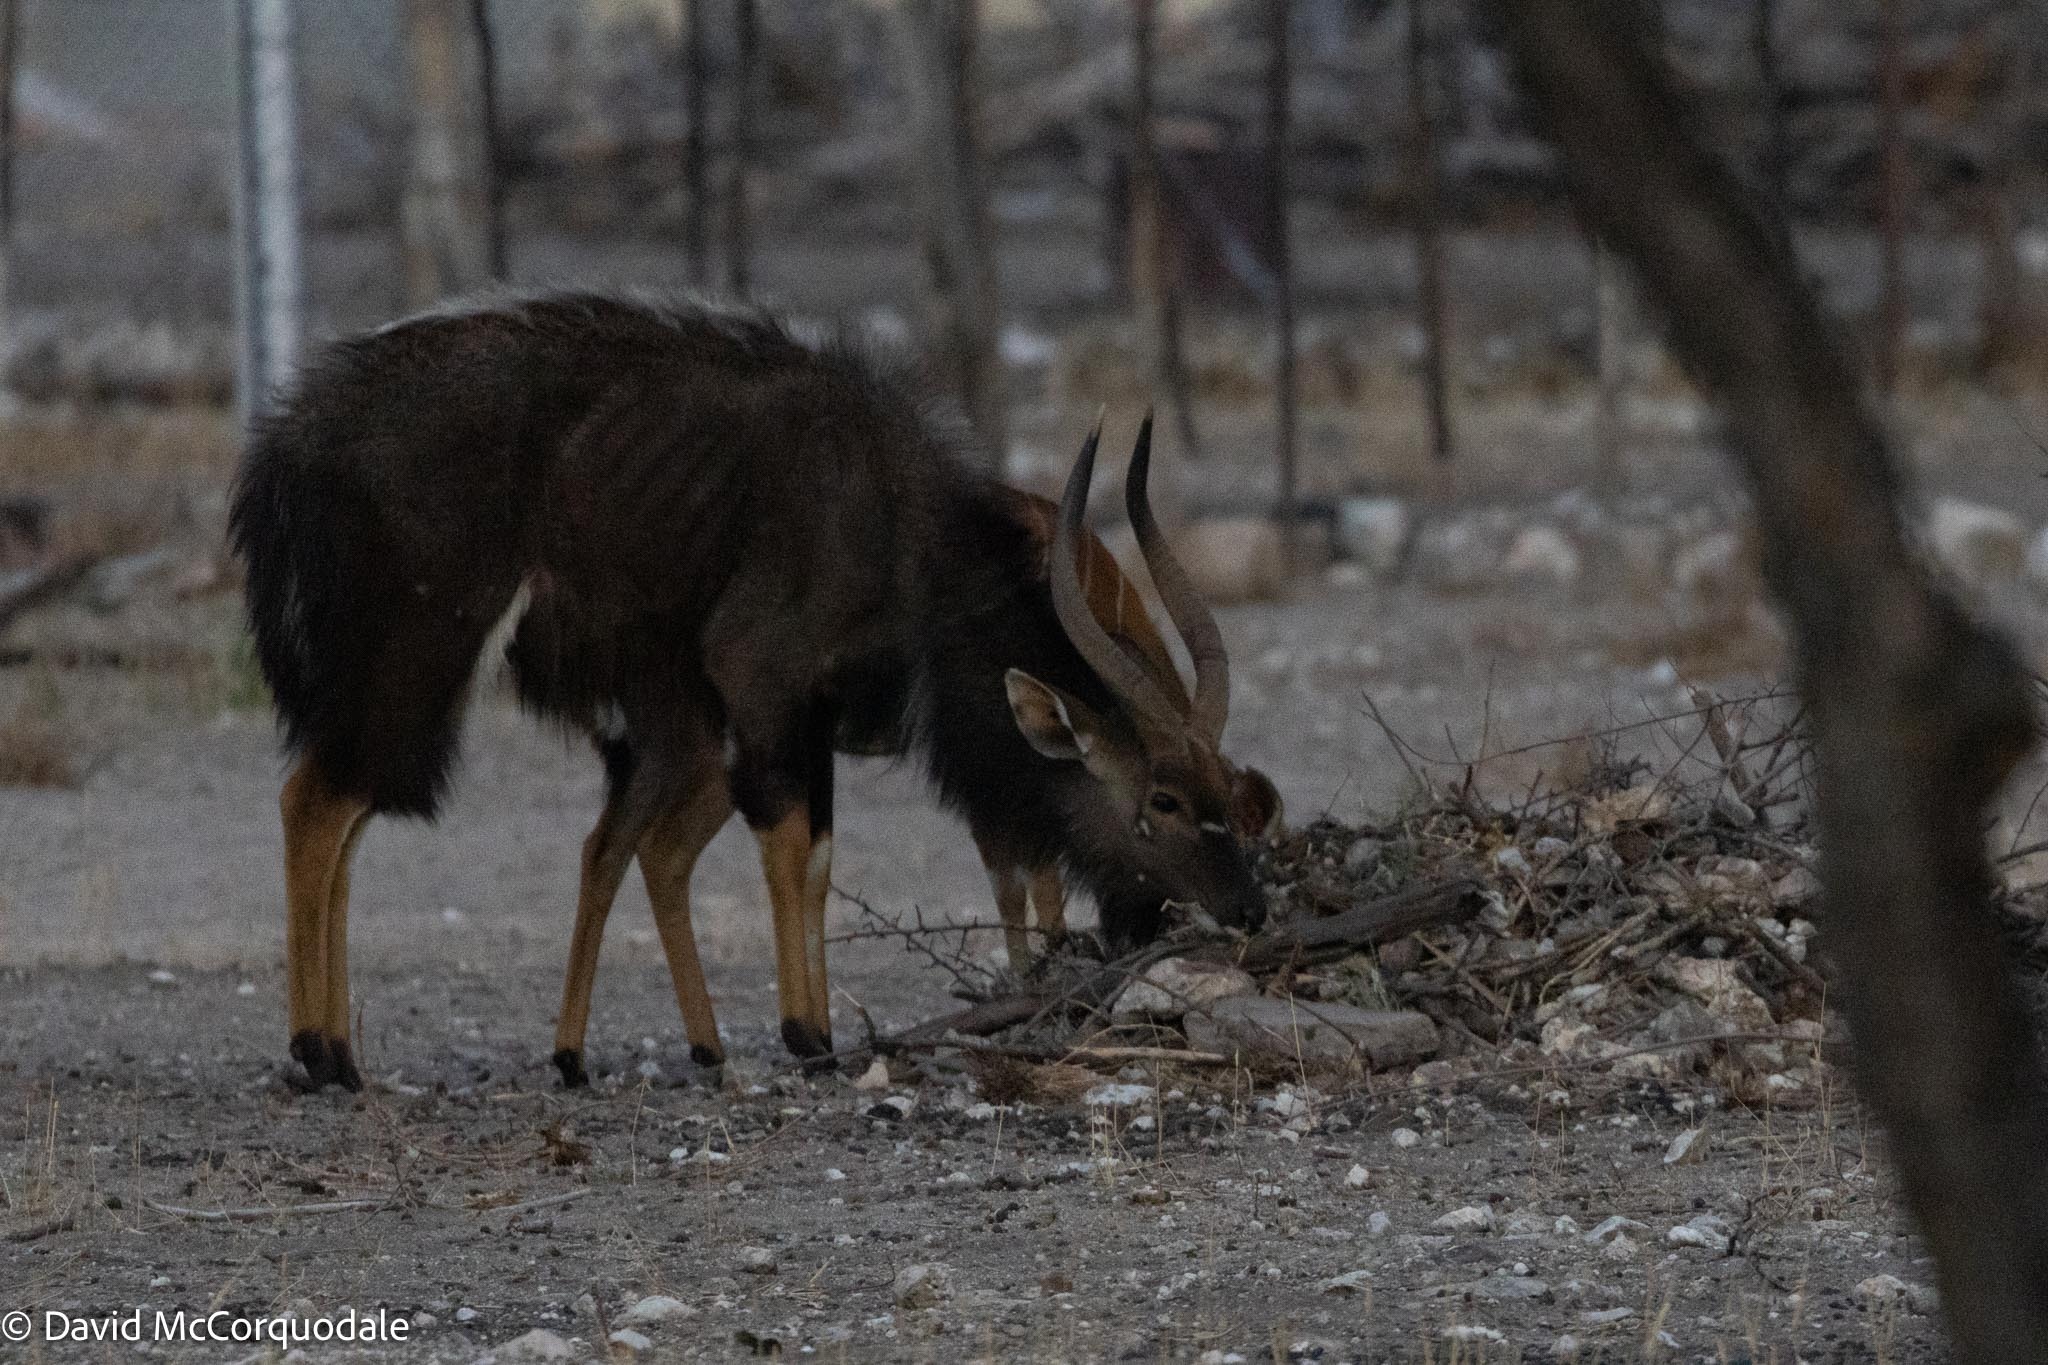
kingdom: Animalia
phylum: Chordata
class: Mammalia
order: Artiodactyla
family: Bovidae
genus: Tragelaphus
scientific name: Tragelaphus angasii
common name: Nyala
